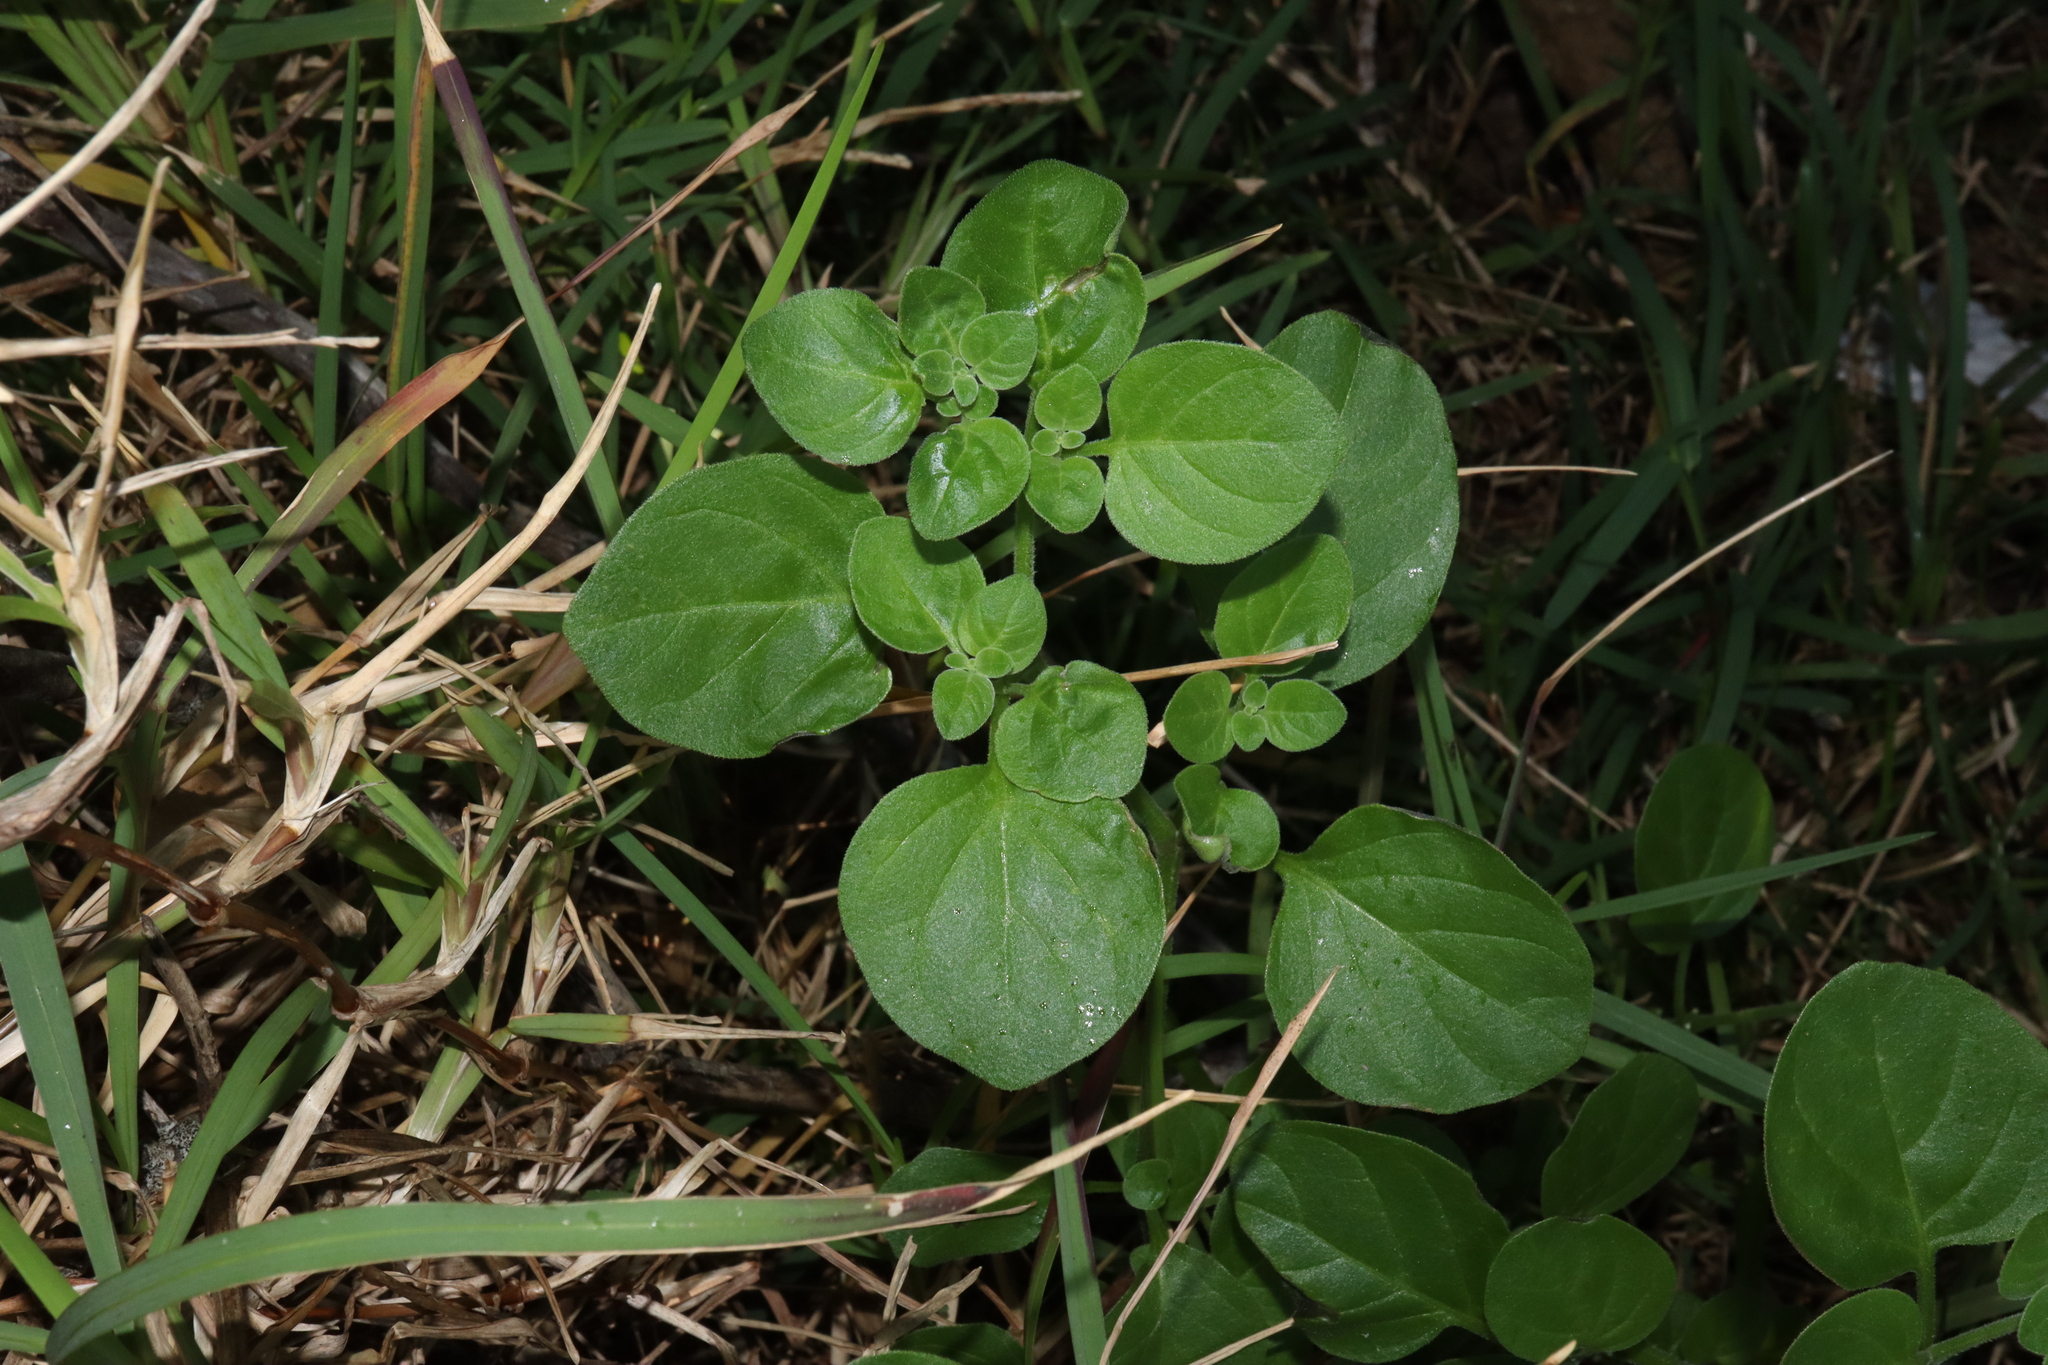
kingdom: Plantae
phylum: Tracheophyta
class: Magnoliopsida
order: Solanales
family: Solanaceae
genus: Salpichroa
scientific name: Salpichroa origanifolia
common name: Lily-of-the-valley-vine
